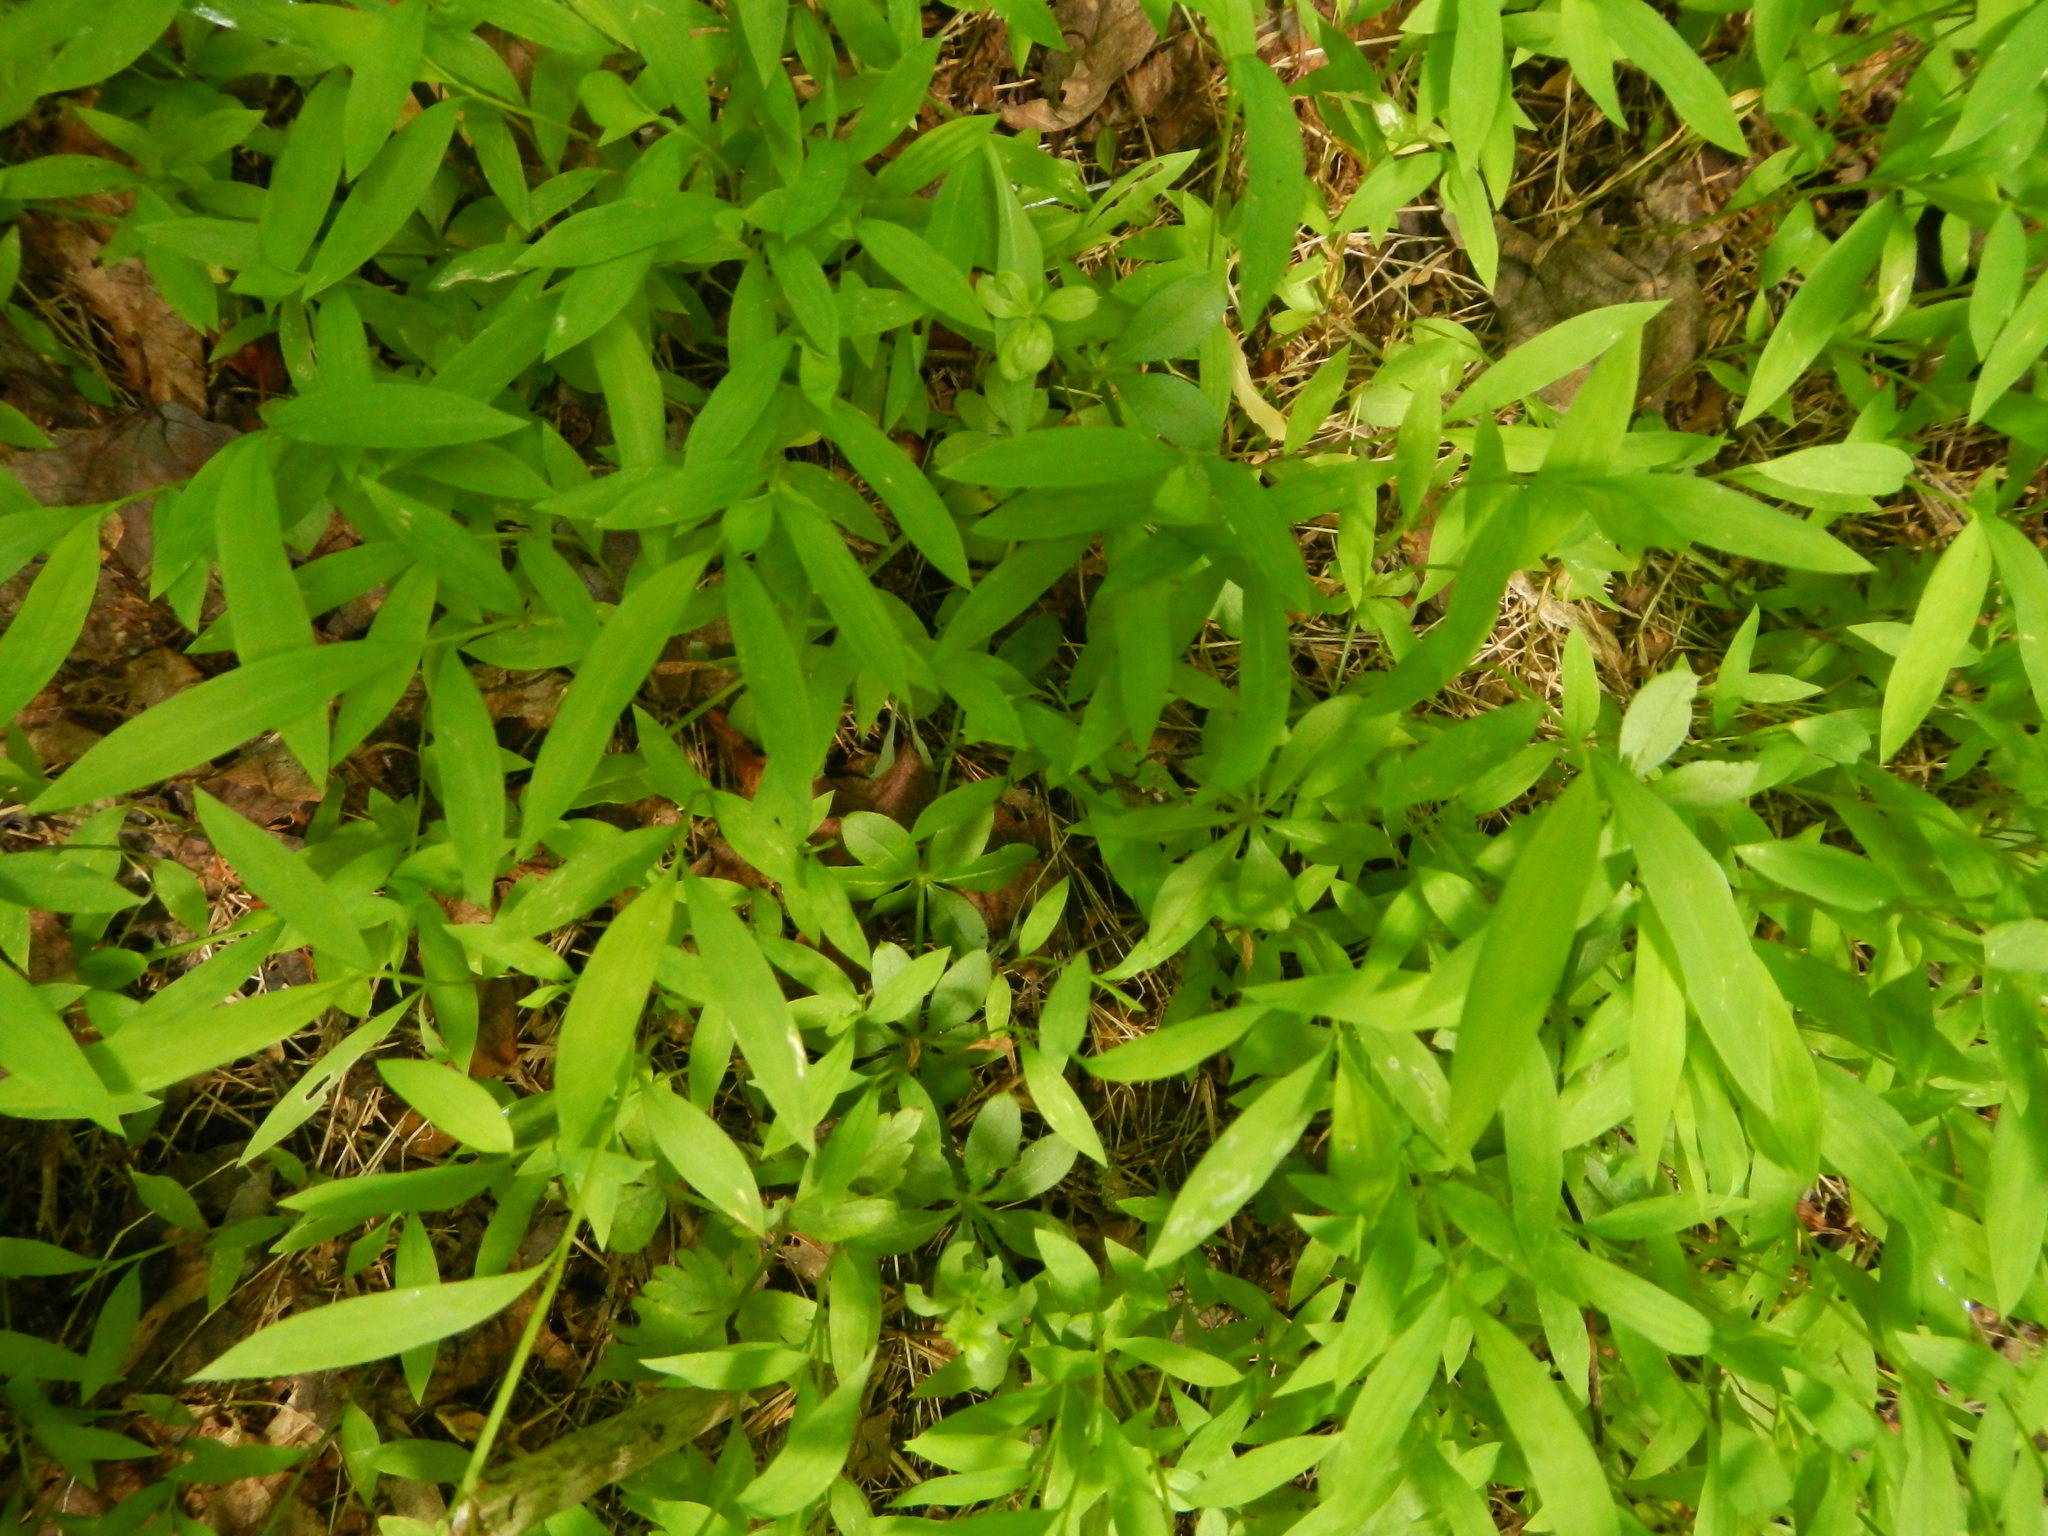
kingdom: Plantae
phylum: Tracheophyta
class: Liliopsida
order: Poales
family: Poaceae
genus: Microstegium
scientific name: Microstegium vimineum
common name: Japanese stiltgrass
